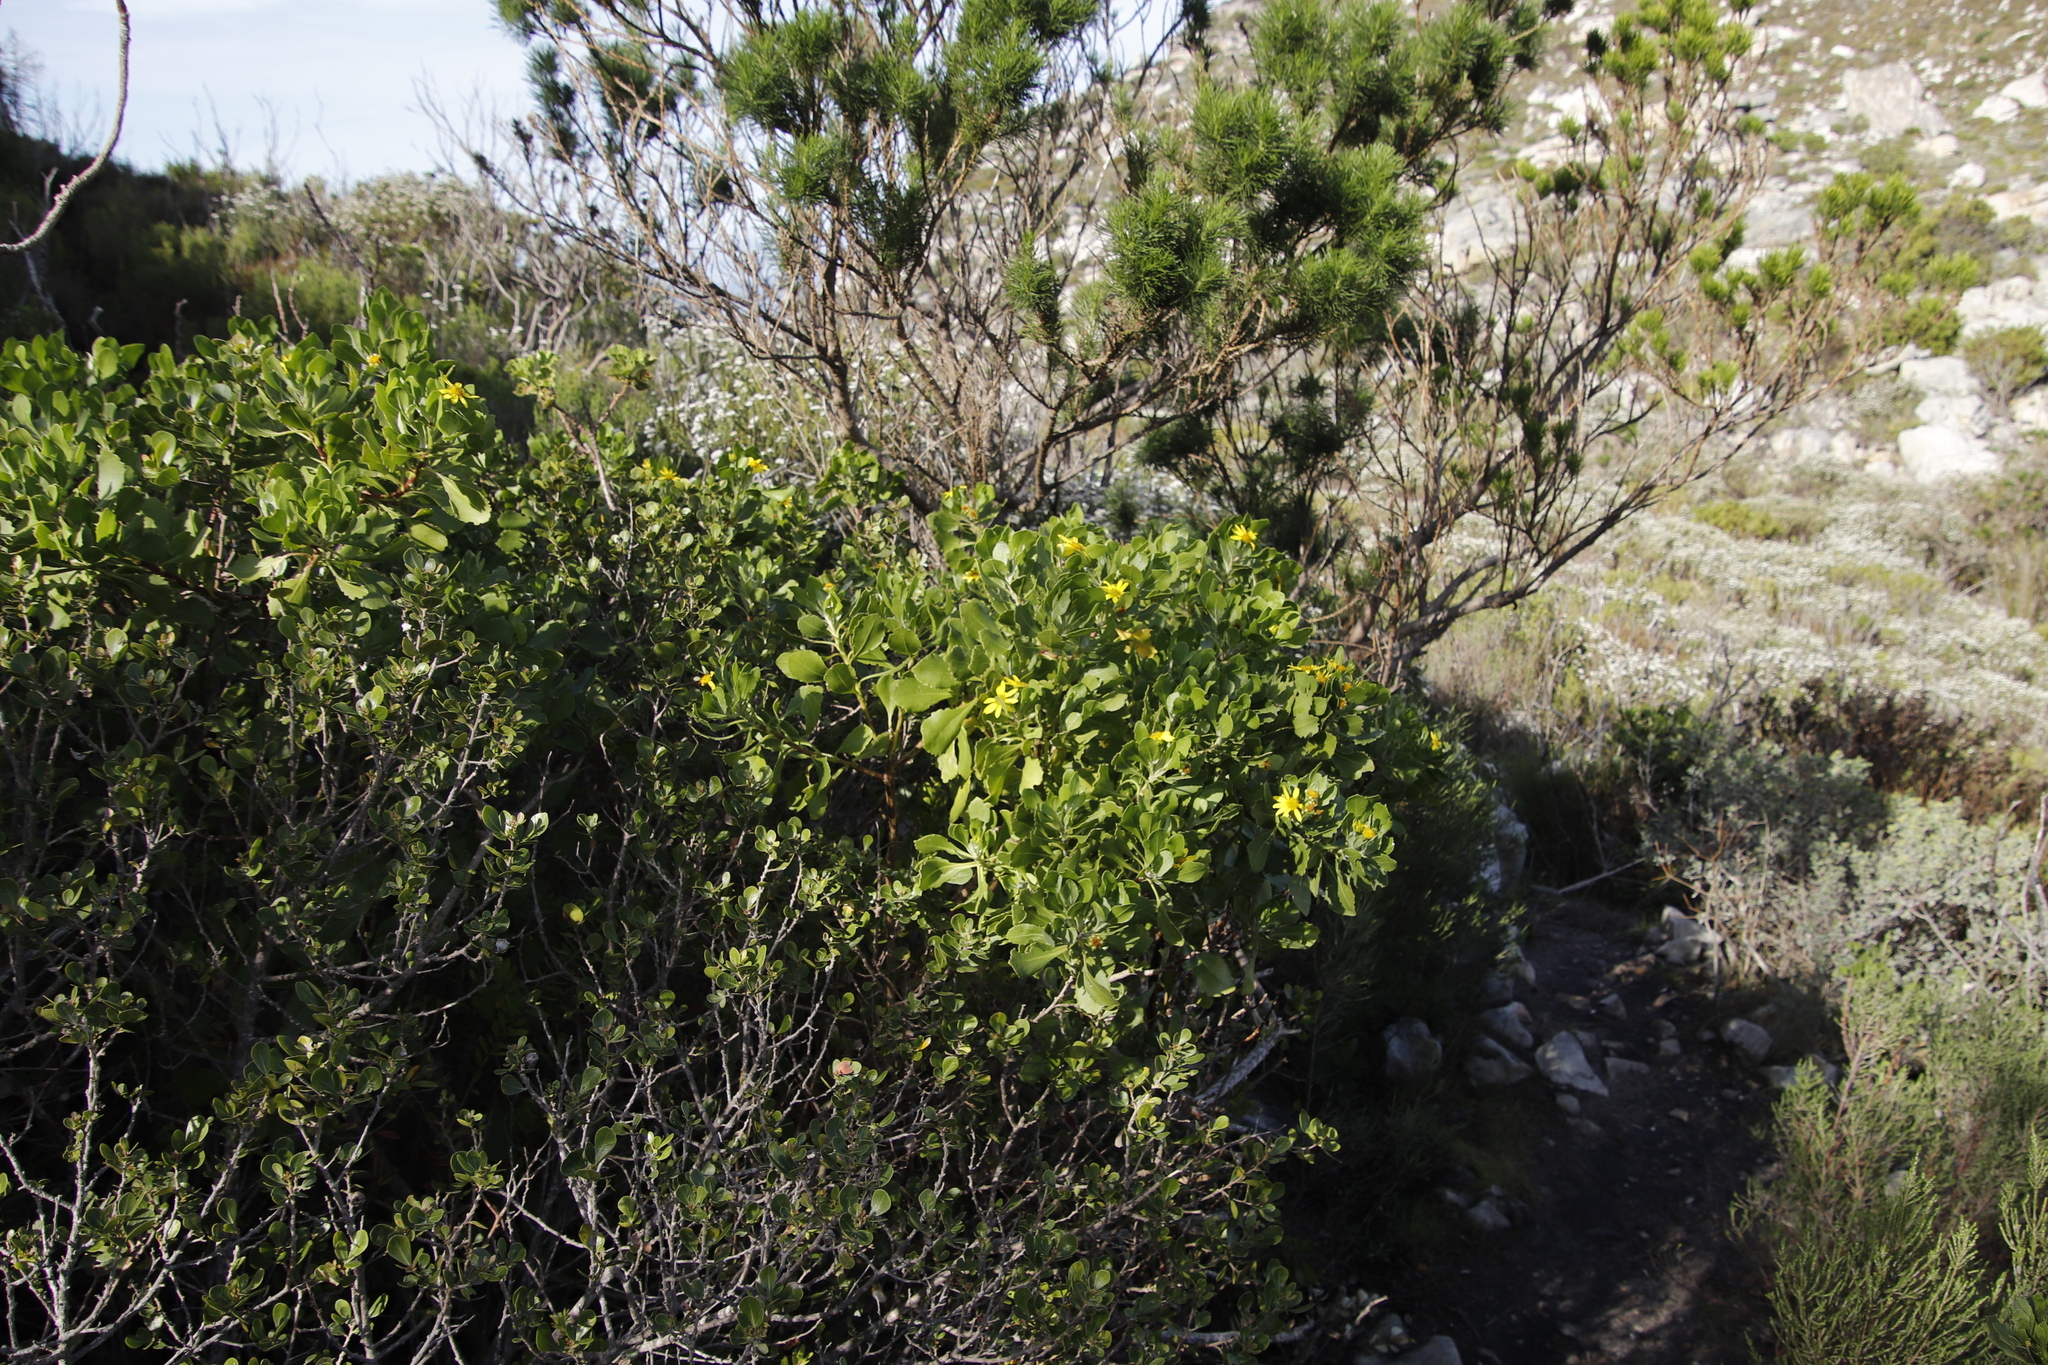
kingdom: Plantae
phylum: Tracheophyta
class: Magnoliopsida
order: Asterales
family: Asteraceae
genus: Osteospermum
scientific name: Osteospermum moniliferum
